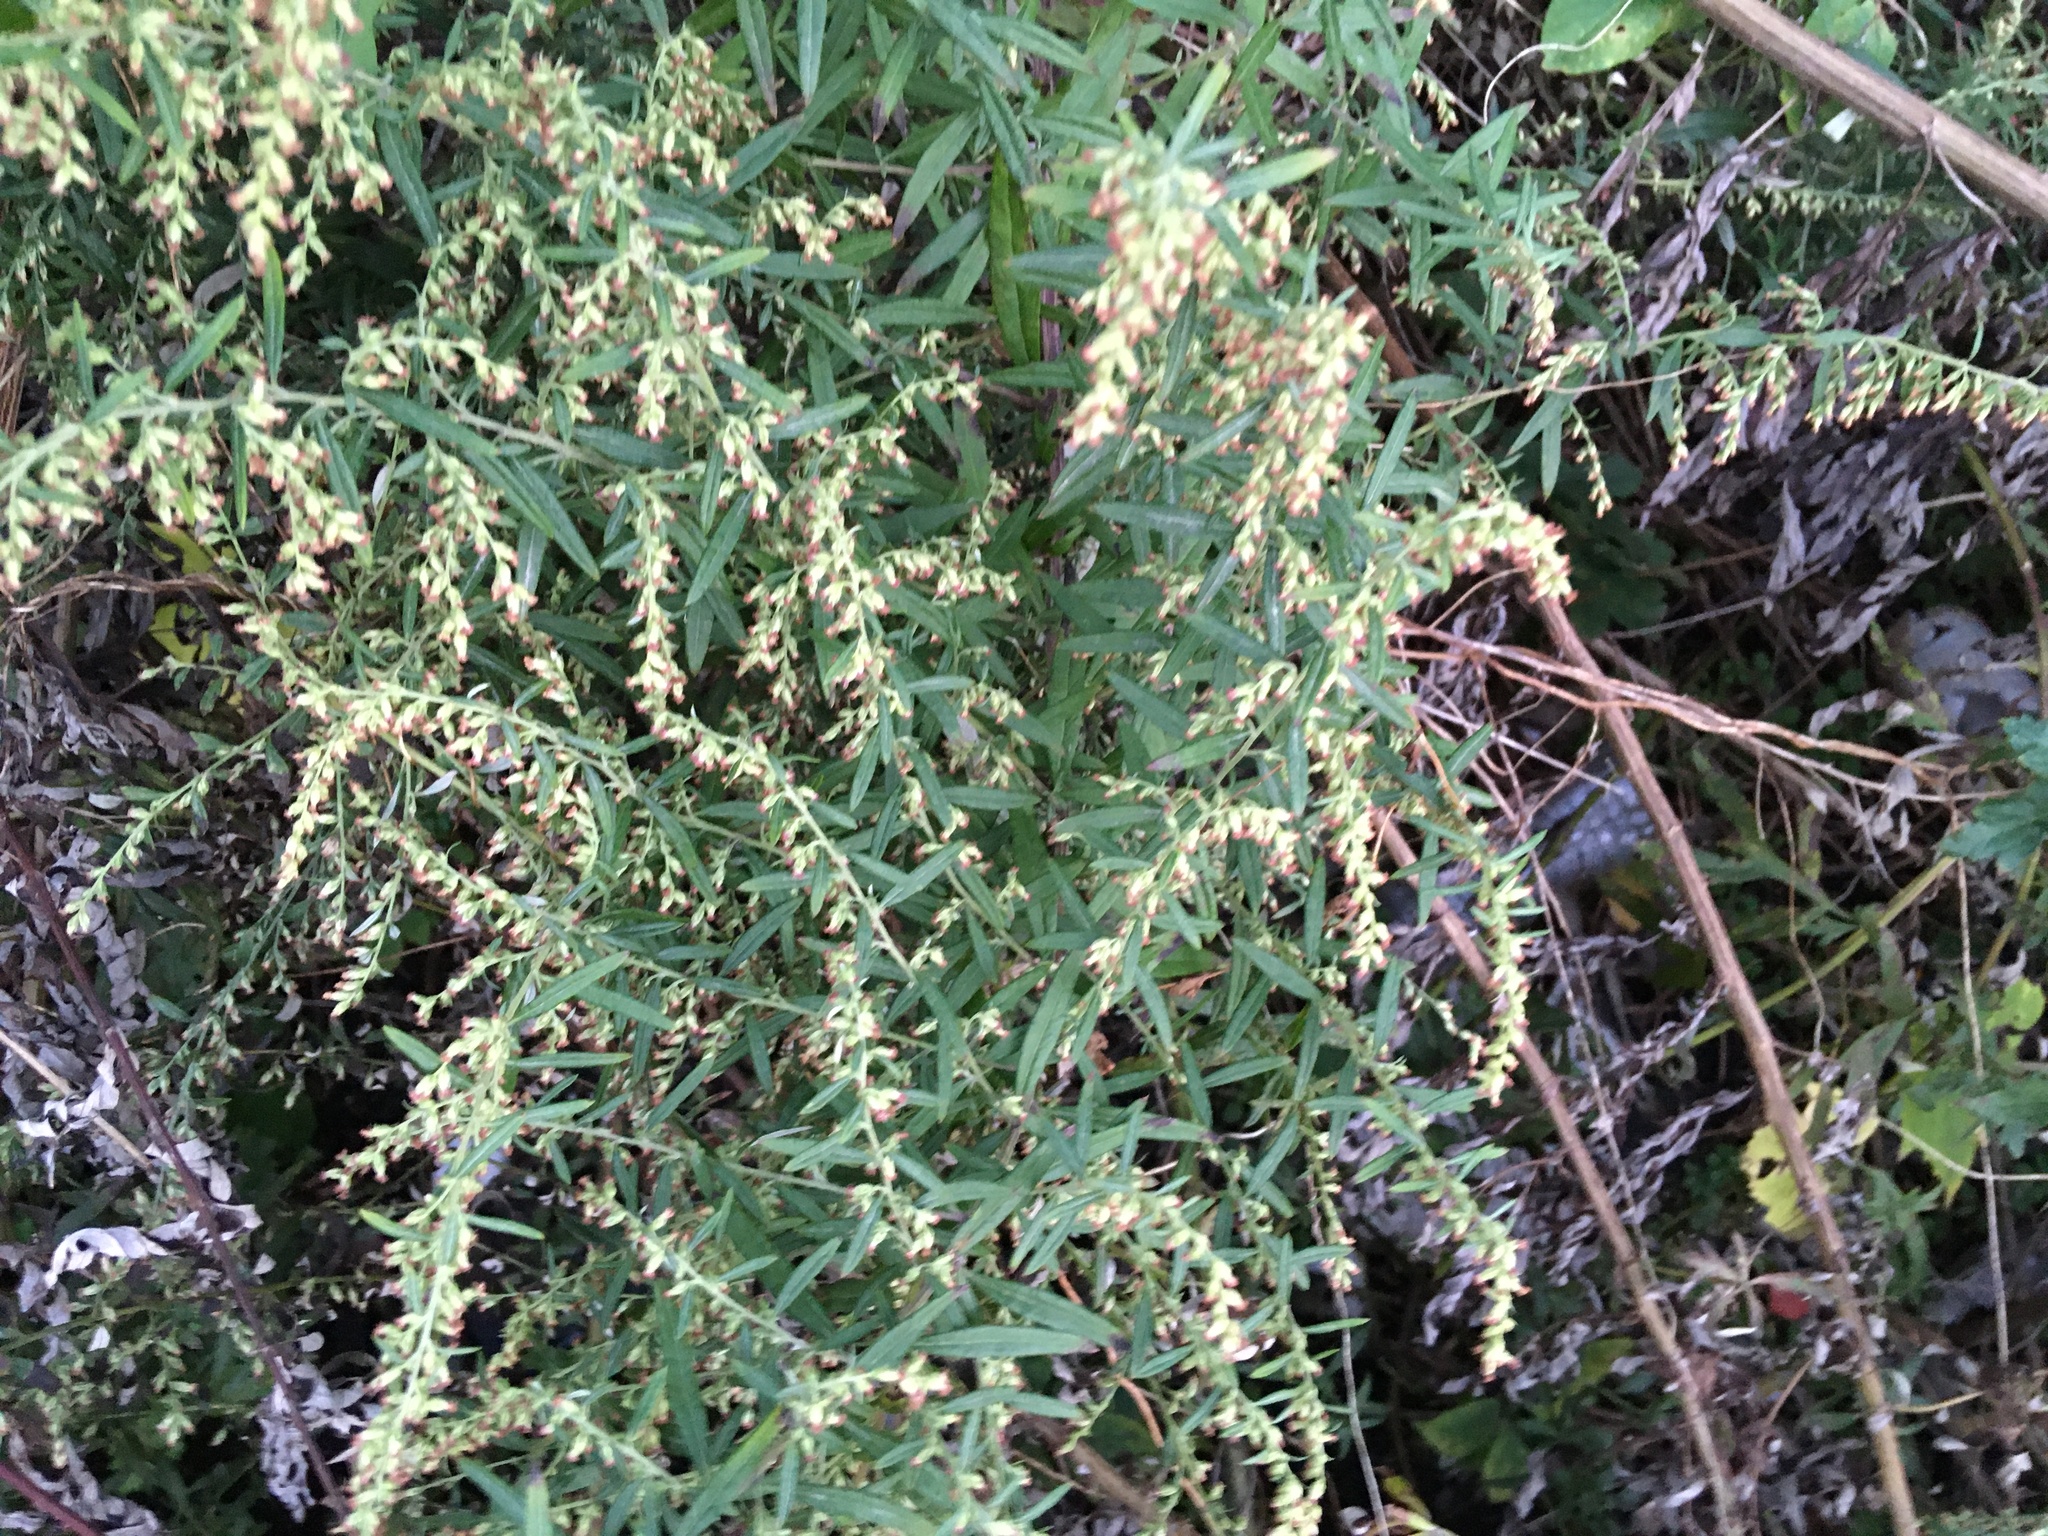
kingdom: Plantae
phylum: Tracheophyta
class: Magnoliopsida
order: Asterales
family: Asteraceae
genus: Artemisia
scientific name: Artemisia vulgaris
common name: Mugwort
